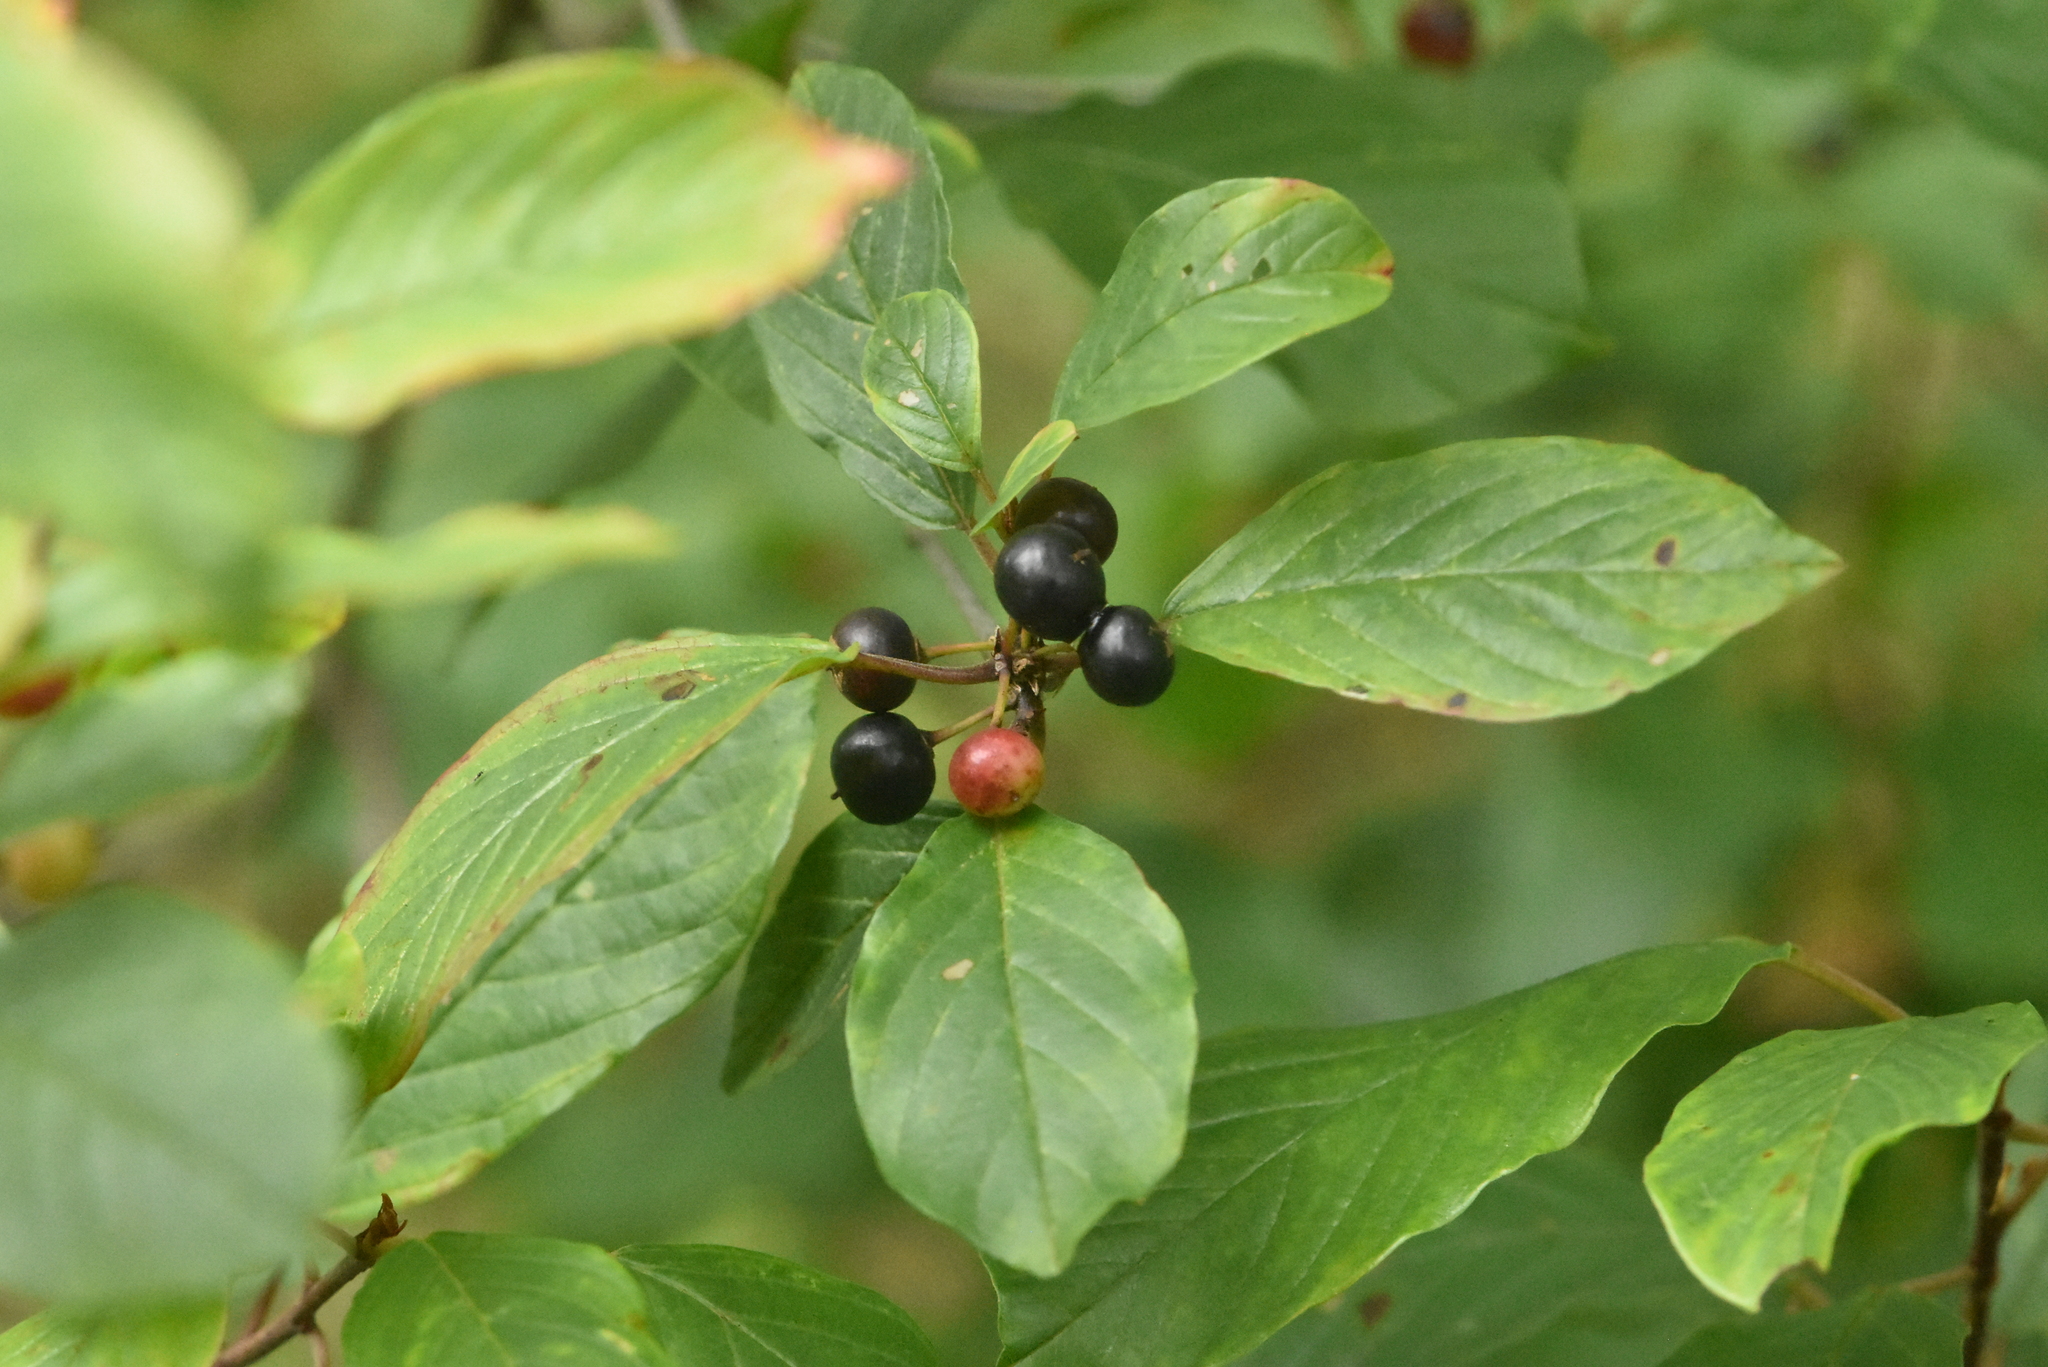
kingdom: Plantae
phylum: Tracheophyta
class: Magnoliopsida
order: Rosales
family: Rhamnaceae
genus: Frangula
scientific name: Frangula alnus
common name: Alder buckthorn
